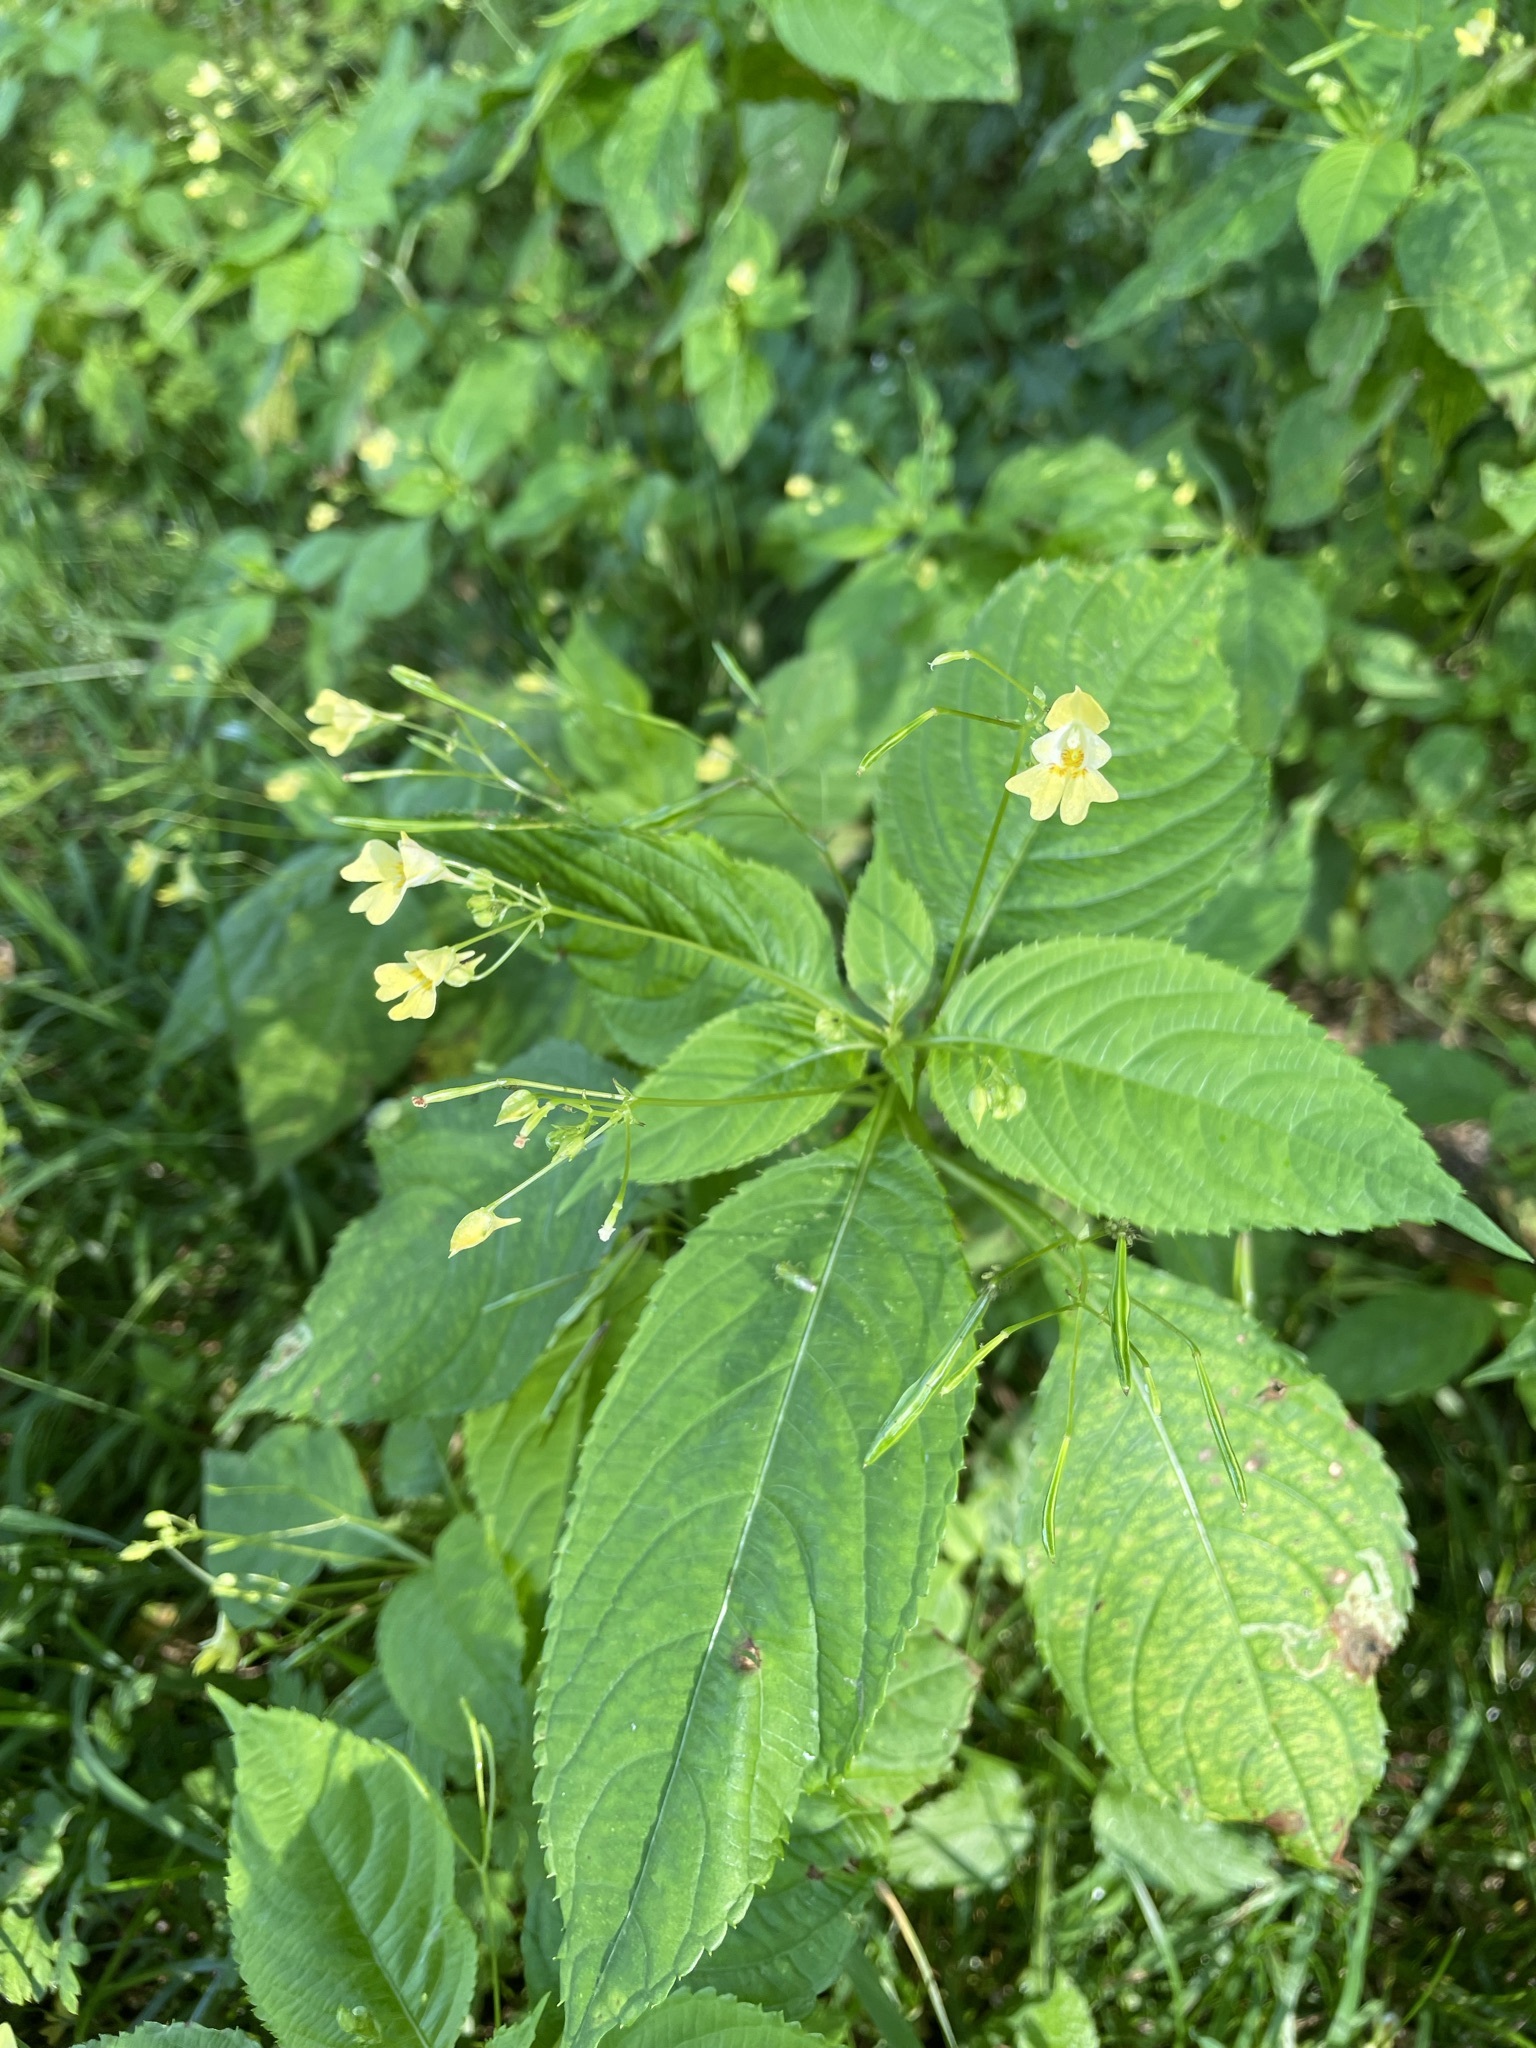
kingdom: Plantae
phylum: Tracheophyta
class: Magnoliopsida
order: Ericales
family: Balsaminaceae
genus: Impatiens
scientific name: Impatiens parviflora
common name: Small balsam
